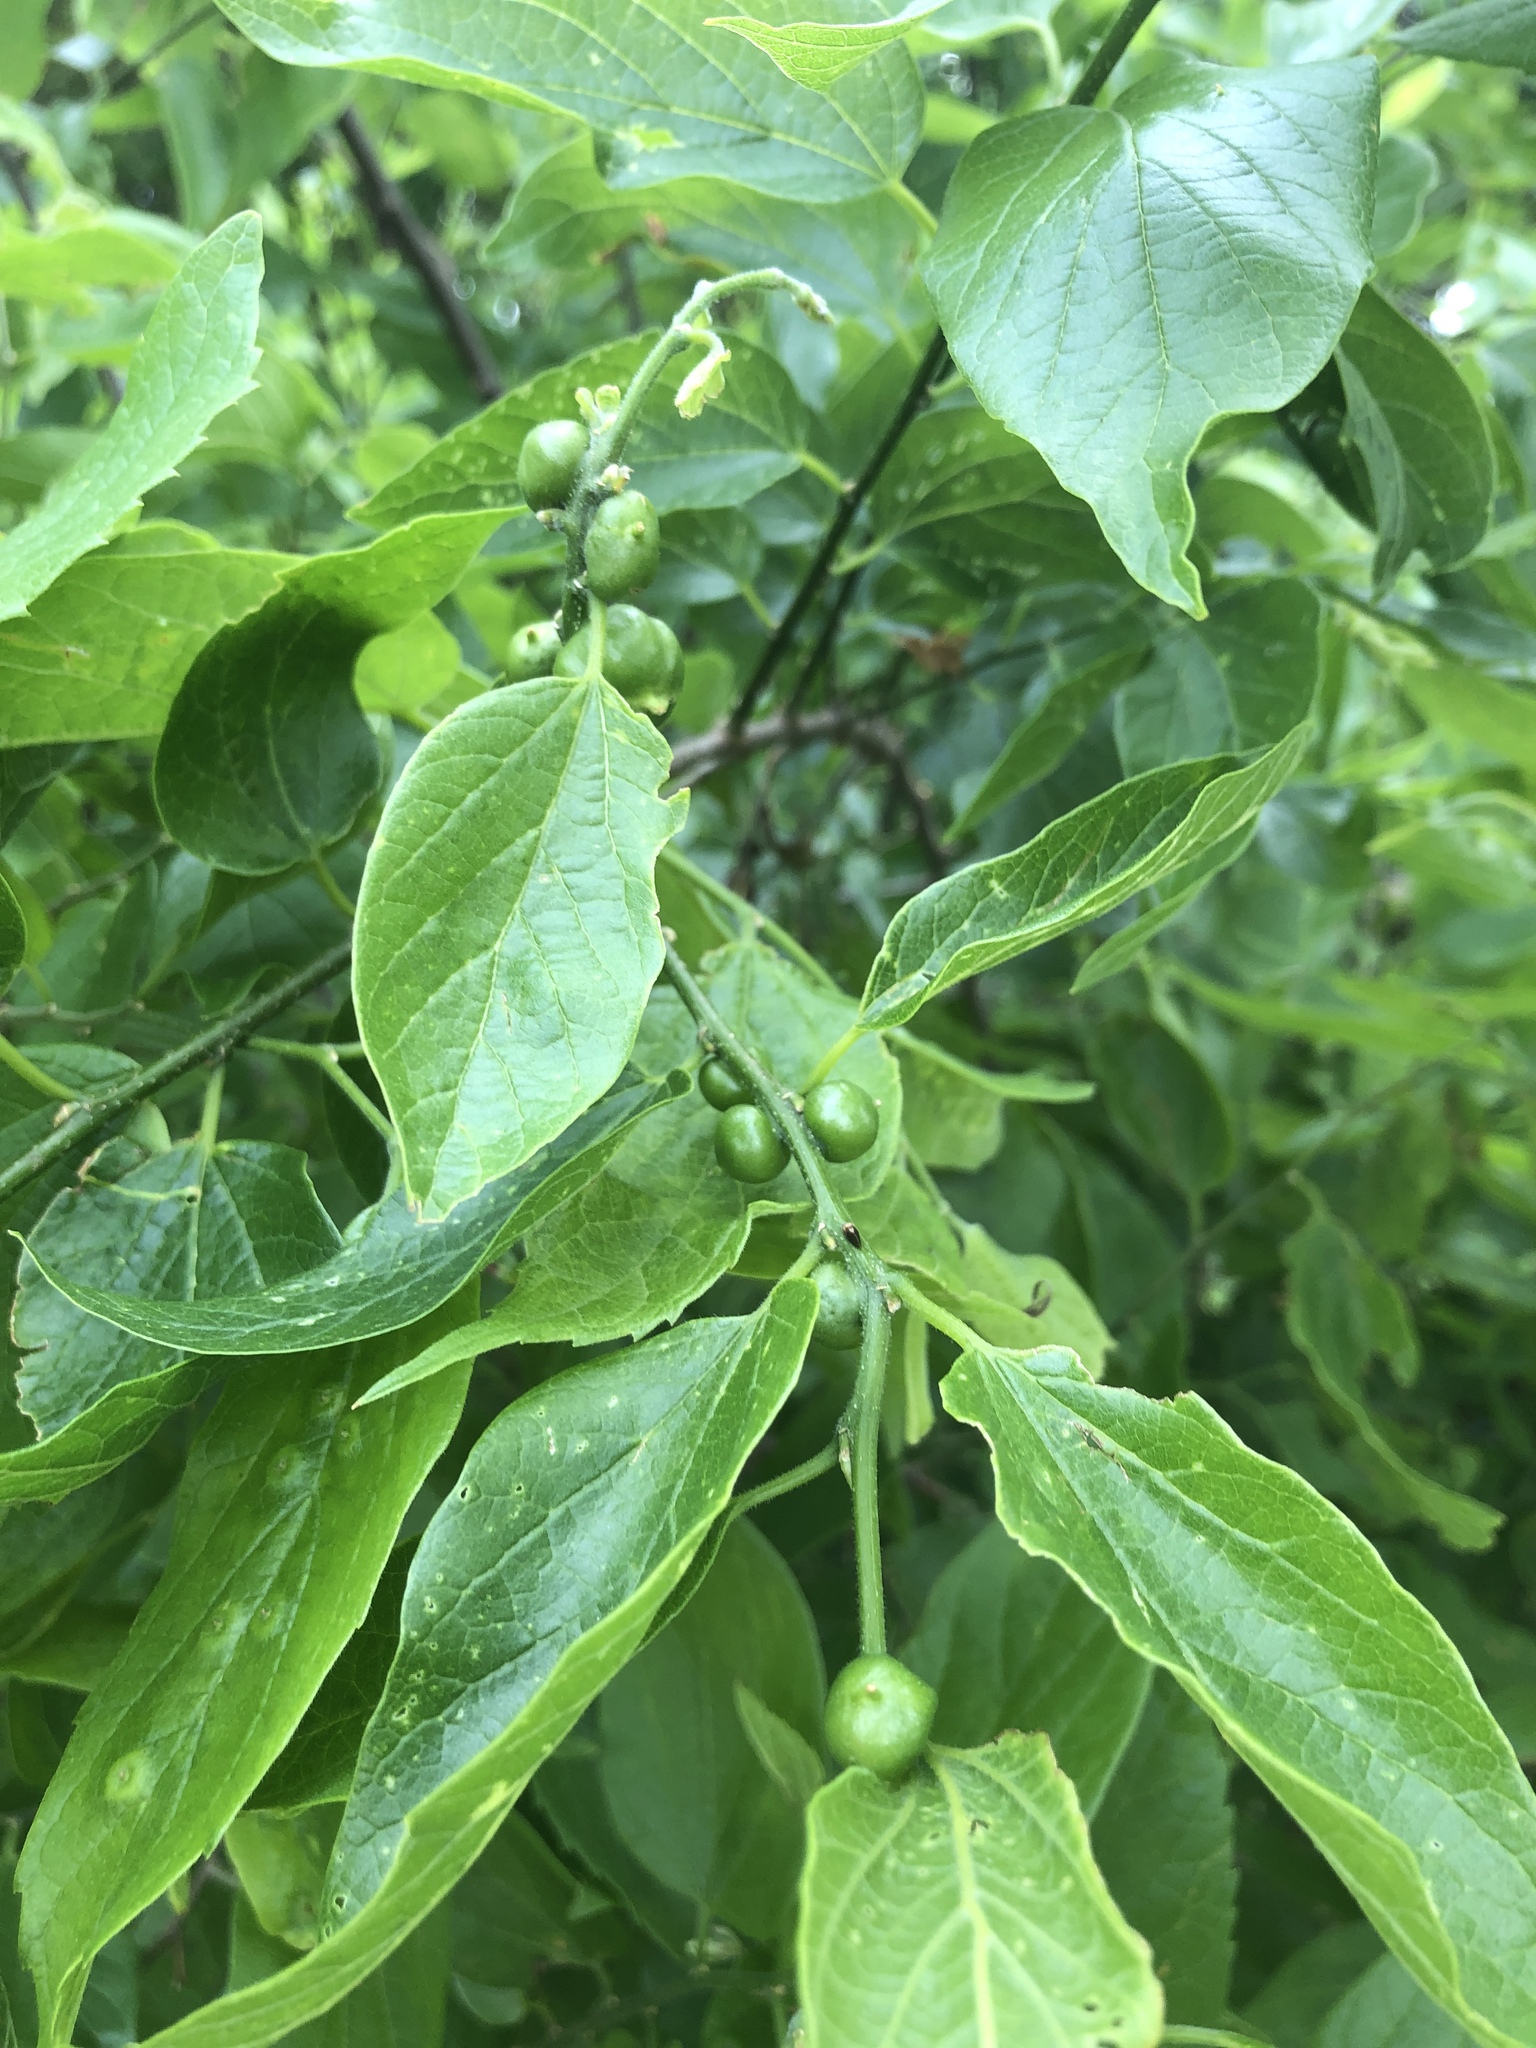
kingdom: Plantae
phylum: Tracheophyta
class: Magnoliopsida
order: Rosales
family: Cannabaceae
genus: Celtis
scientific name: Celtis laevigata
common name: Sugarberry
